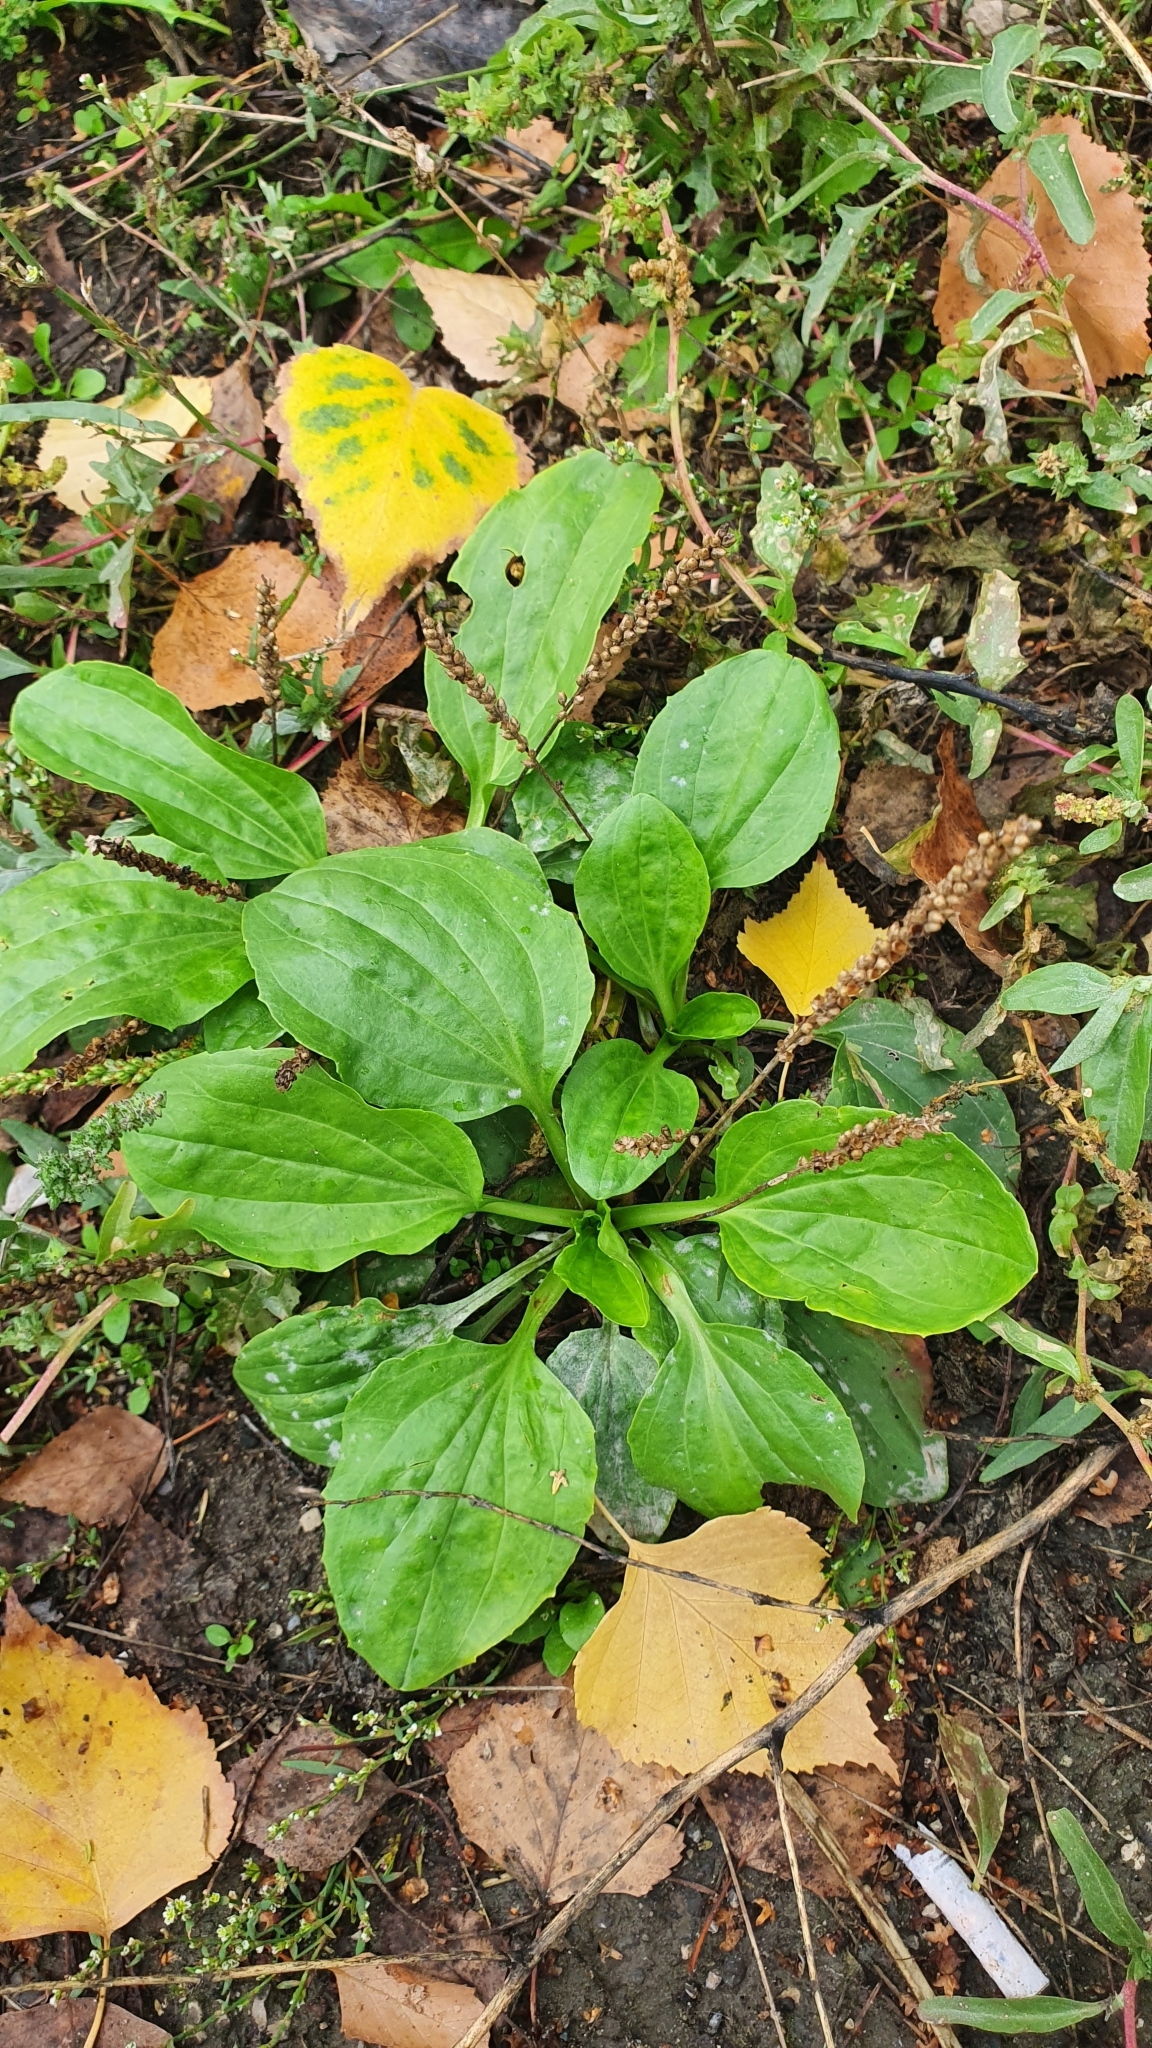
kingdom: Plantae
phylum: Tracheophyta
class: Magnoliopsida
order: Lamiales
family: Plantaginaceae
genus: Plantago
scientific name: Plantago major
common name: Common plantain
